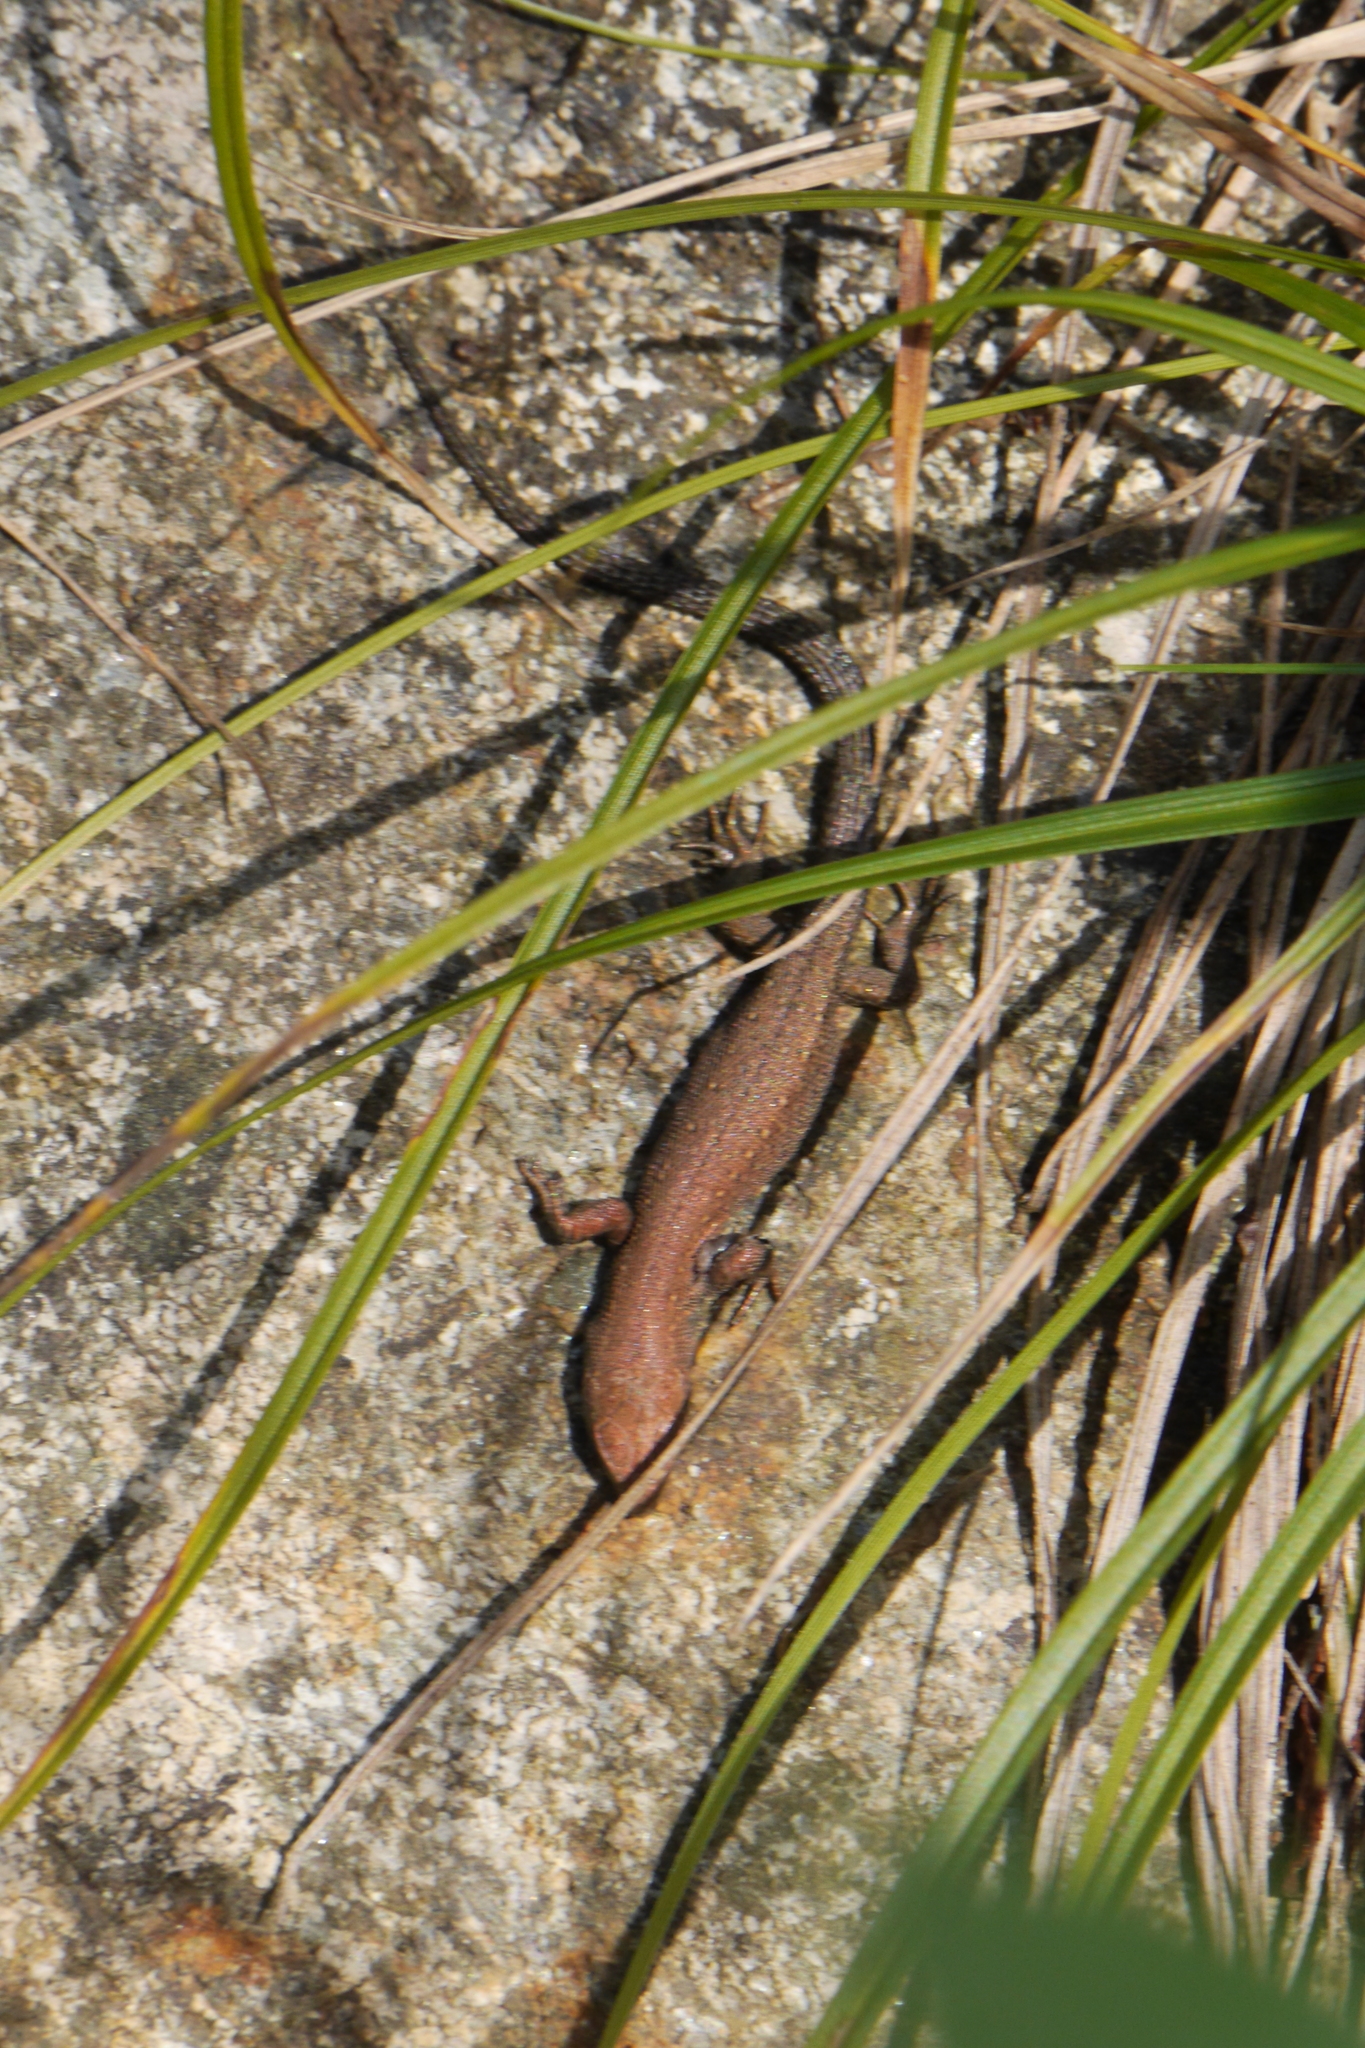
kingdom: Animalia
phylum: Chordata
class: Squamata
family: Lacertidae
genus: Zootoca
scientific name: Zootoca vivipara
